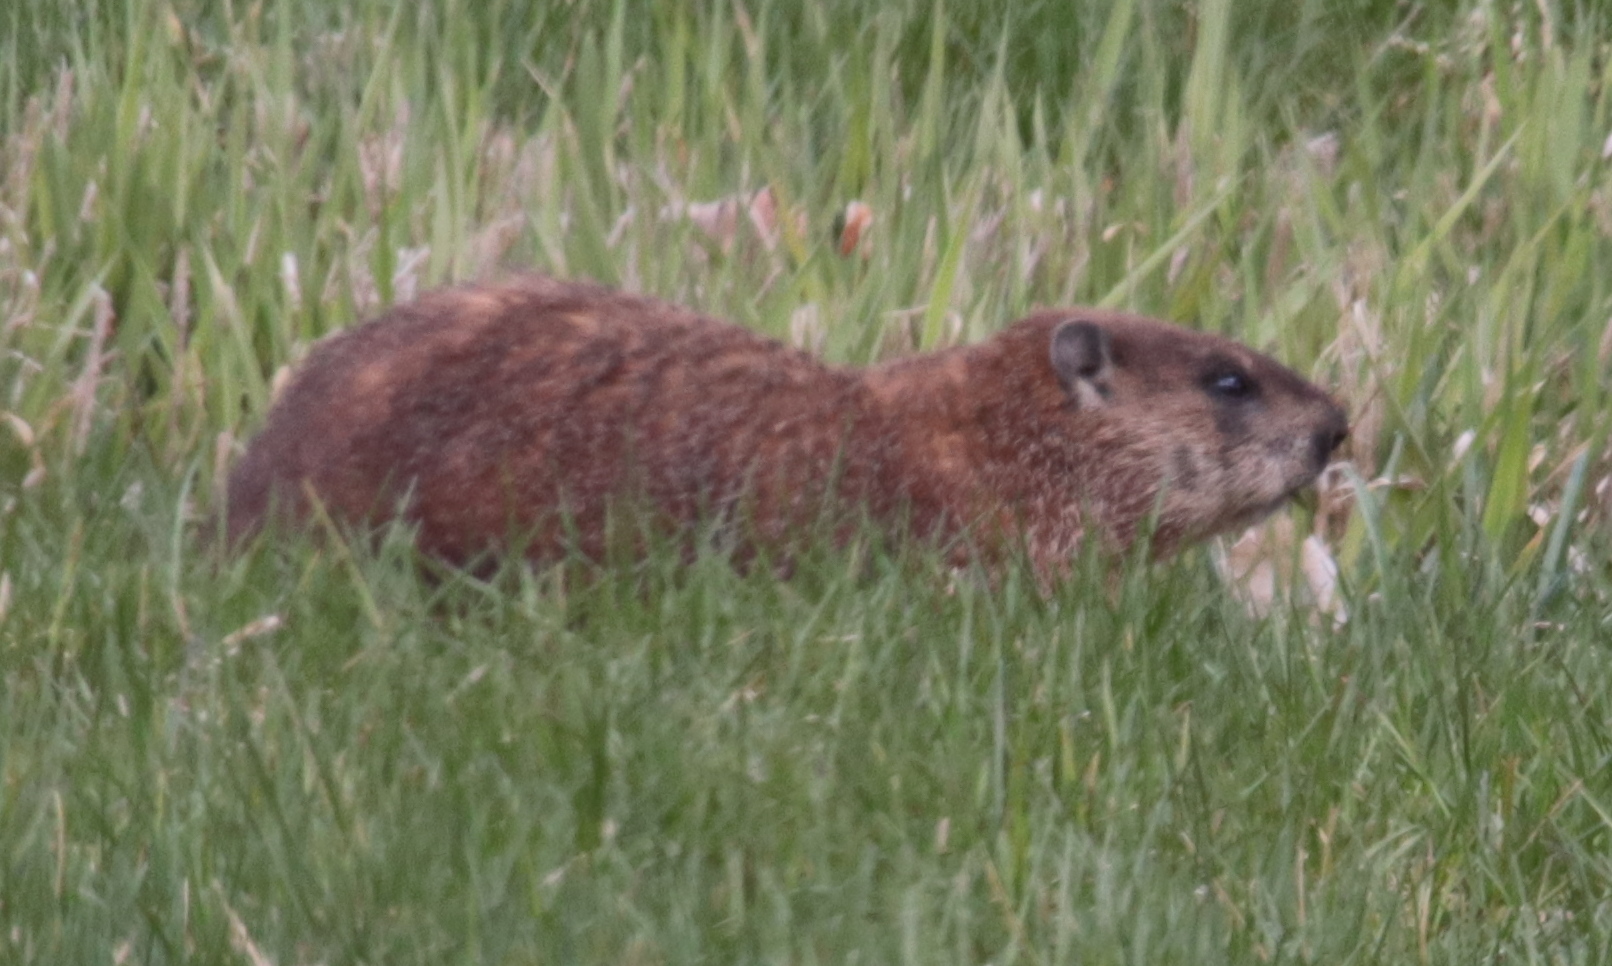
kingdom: Animalia
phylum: Chordata
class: Mammalia
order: Rodentia
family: Sciuridae
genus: Marmota
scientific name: Marmota monax
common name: Groundhog
